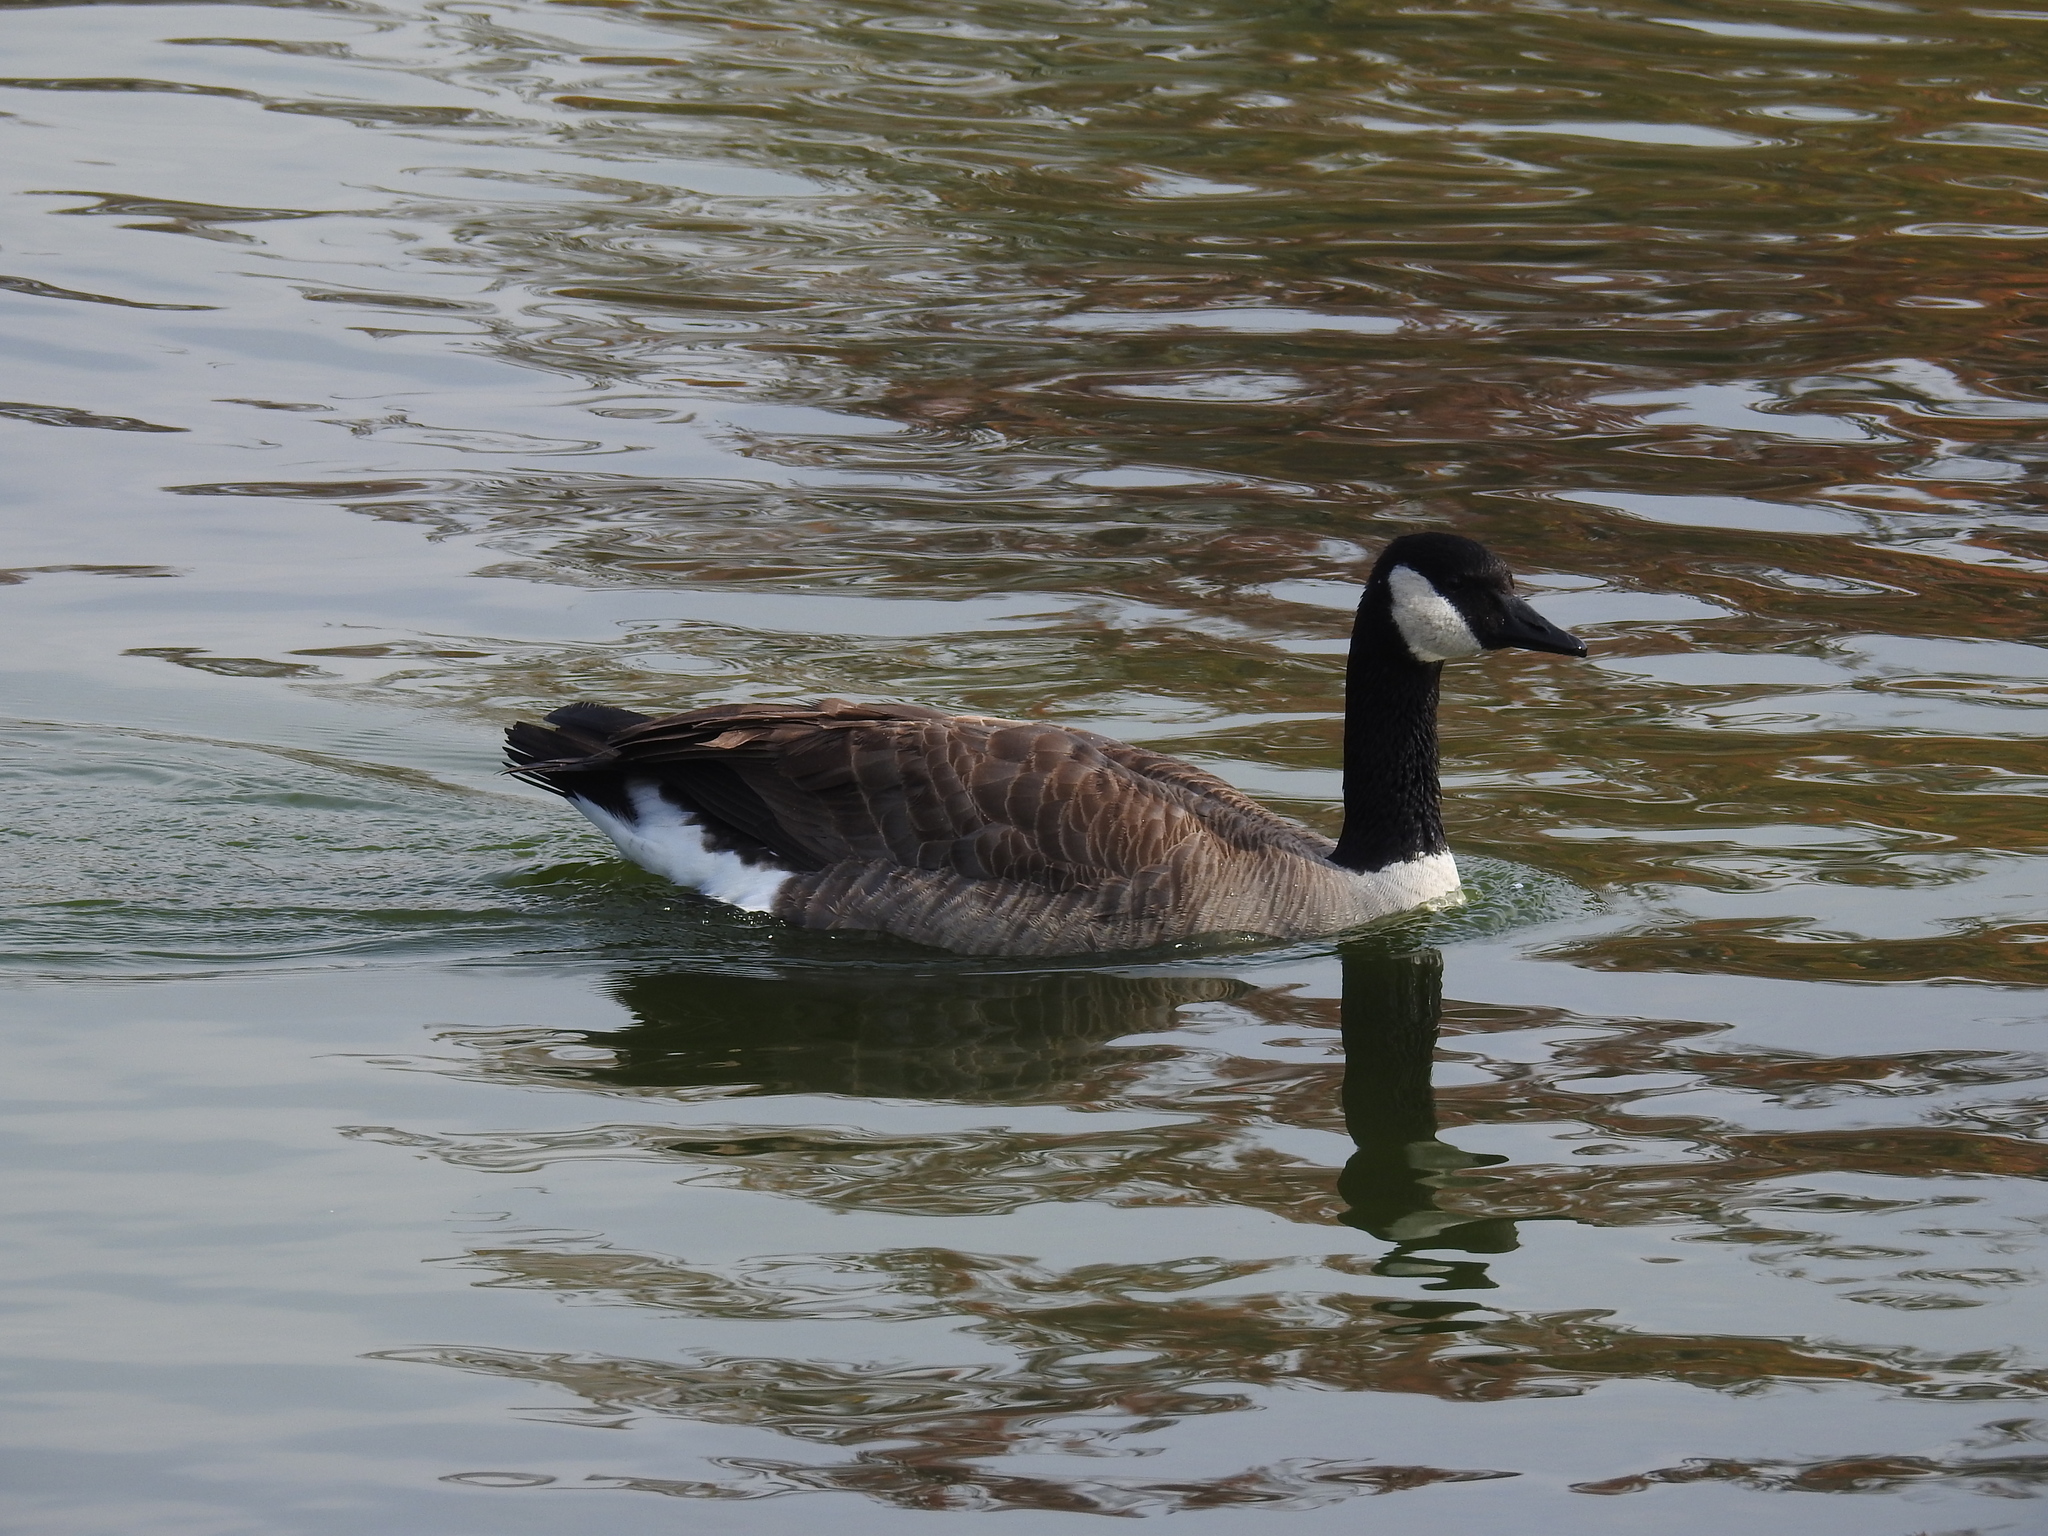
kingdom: Animalia
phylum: Chordata
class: Aves
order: Anseriformes
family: Anatidae
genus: Branta
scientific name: Branta canadensis
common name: Canada goose
